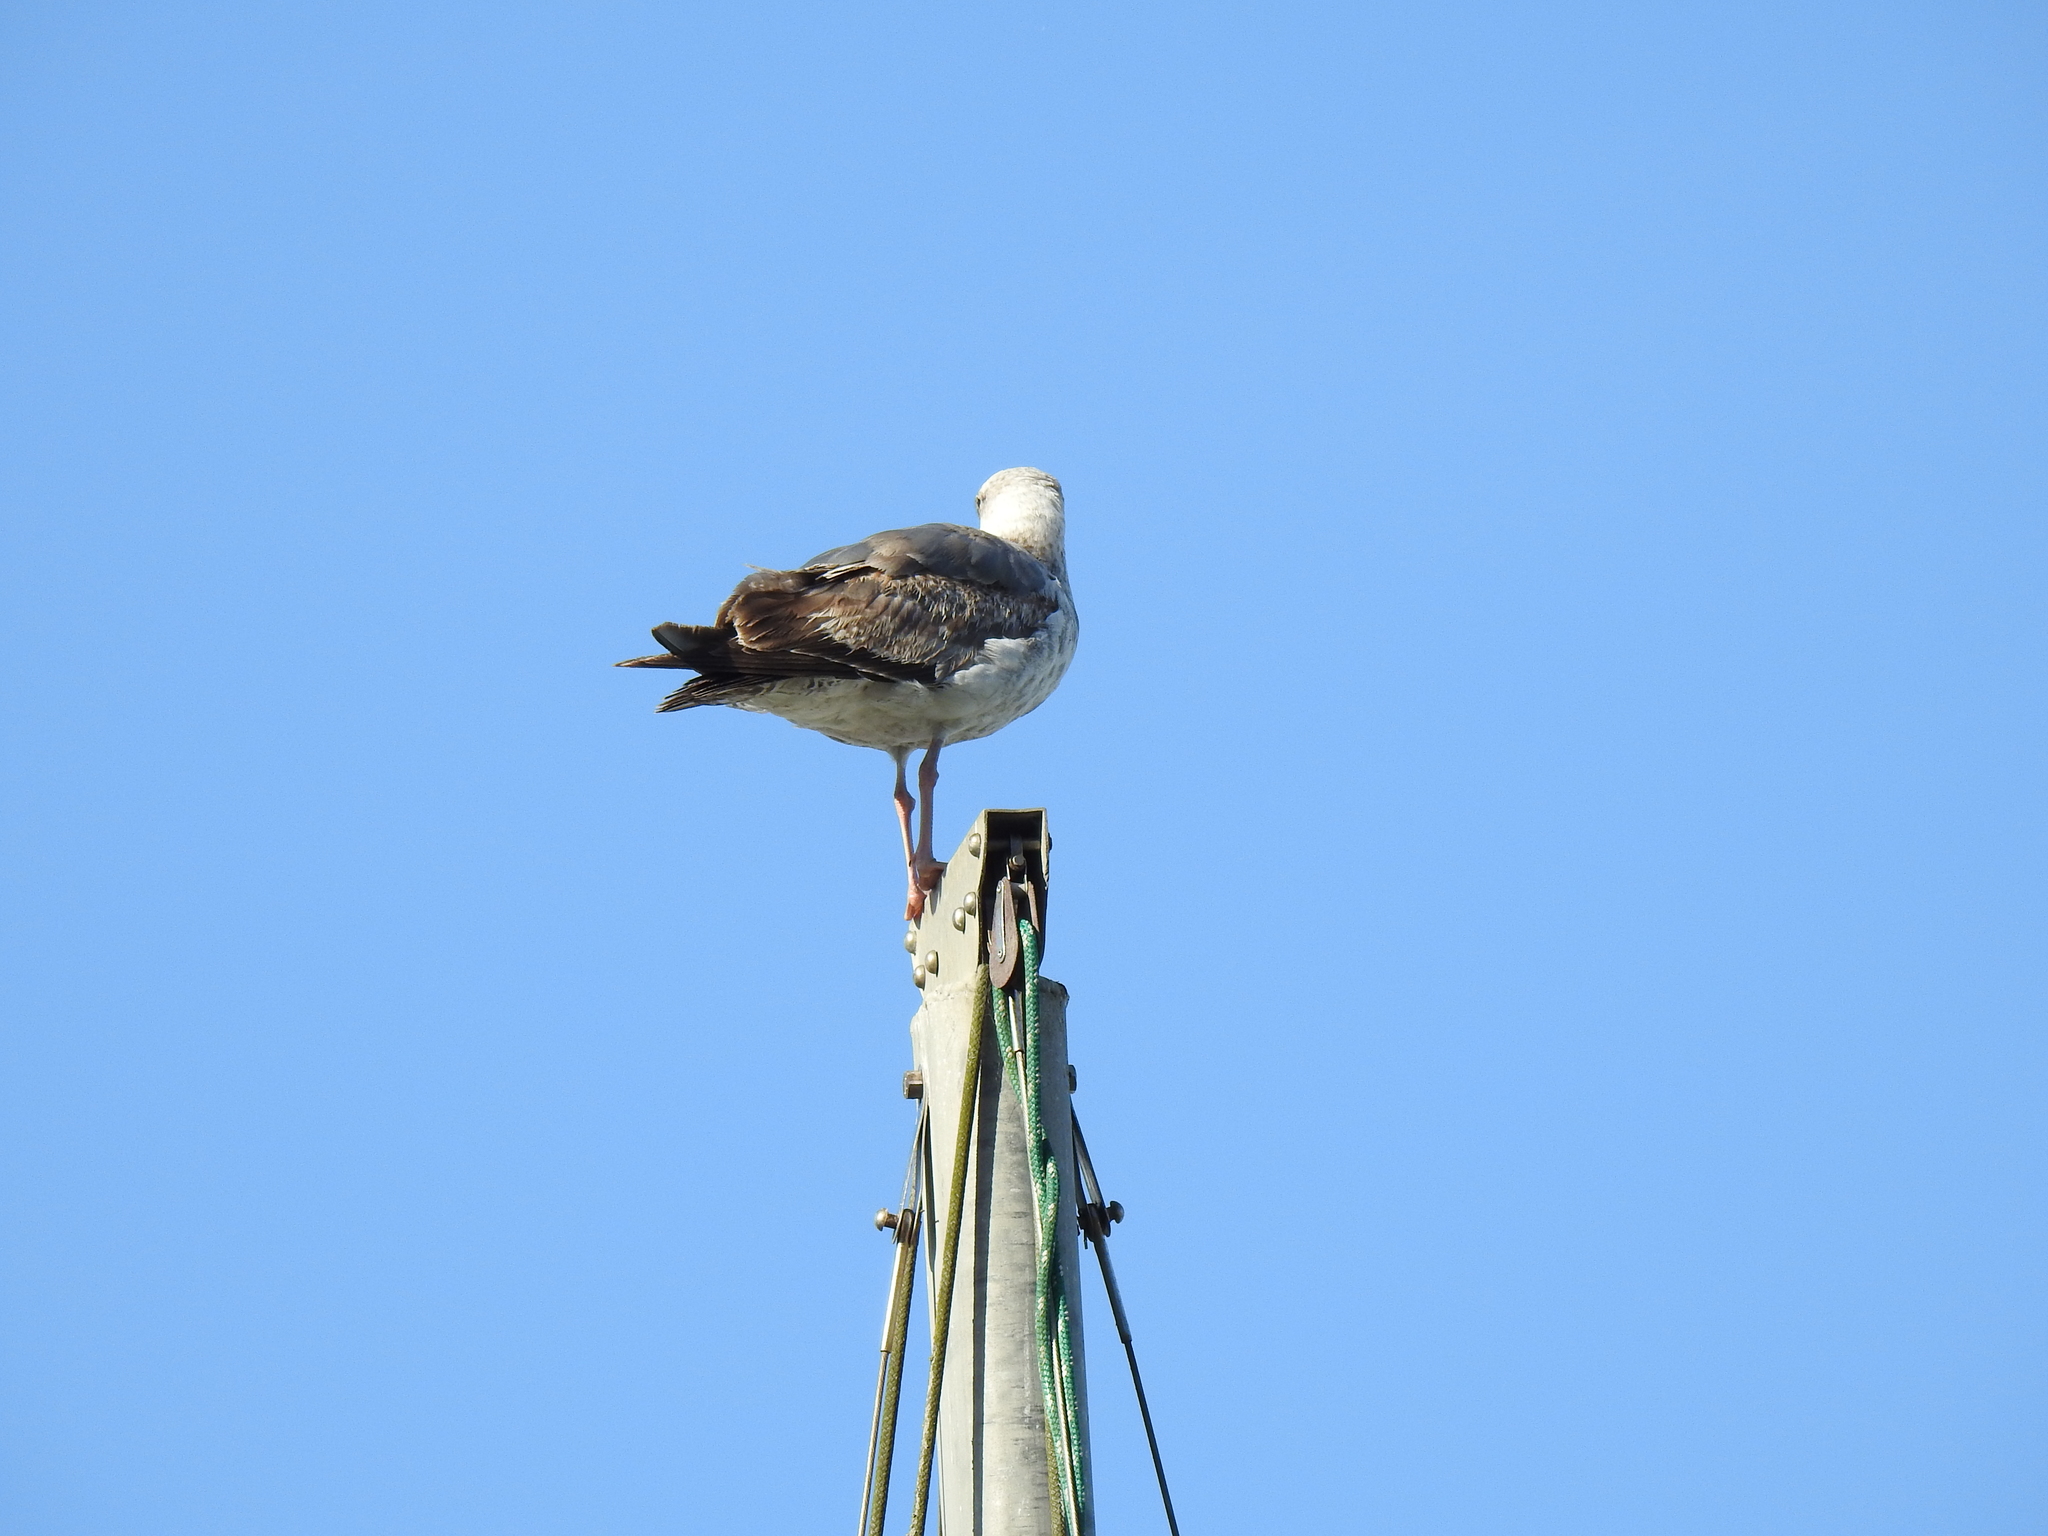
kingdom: Animalia
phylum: Chordata
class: Aves
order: Charadriiformes
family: Laridae
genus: Larus
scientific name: Larus occidentalis
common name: Western gull
